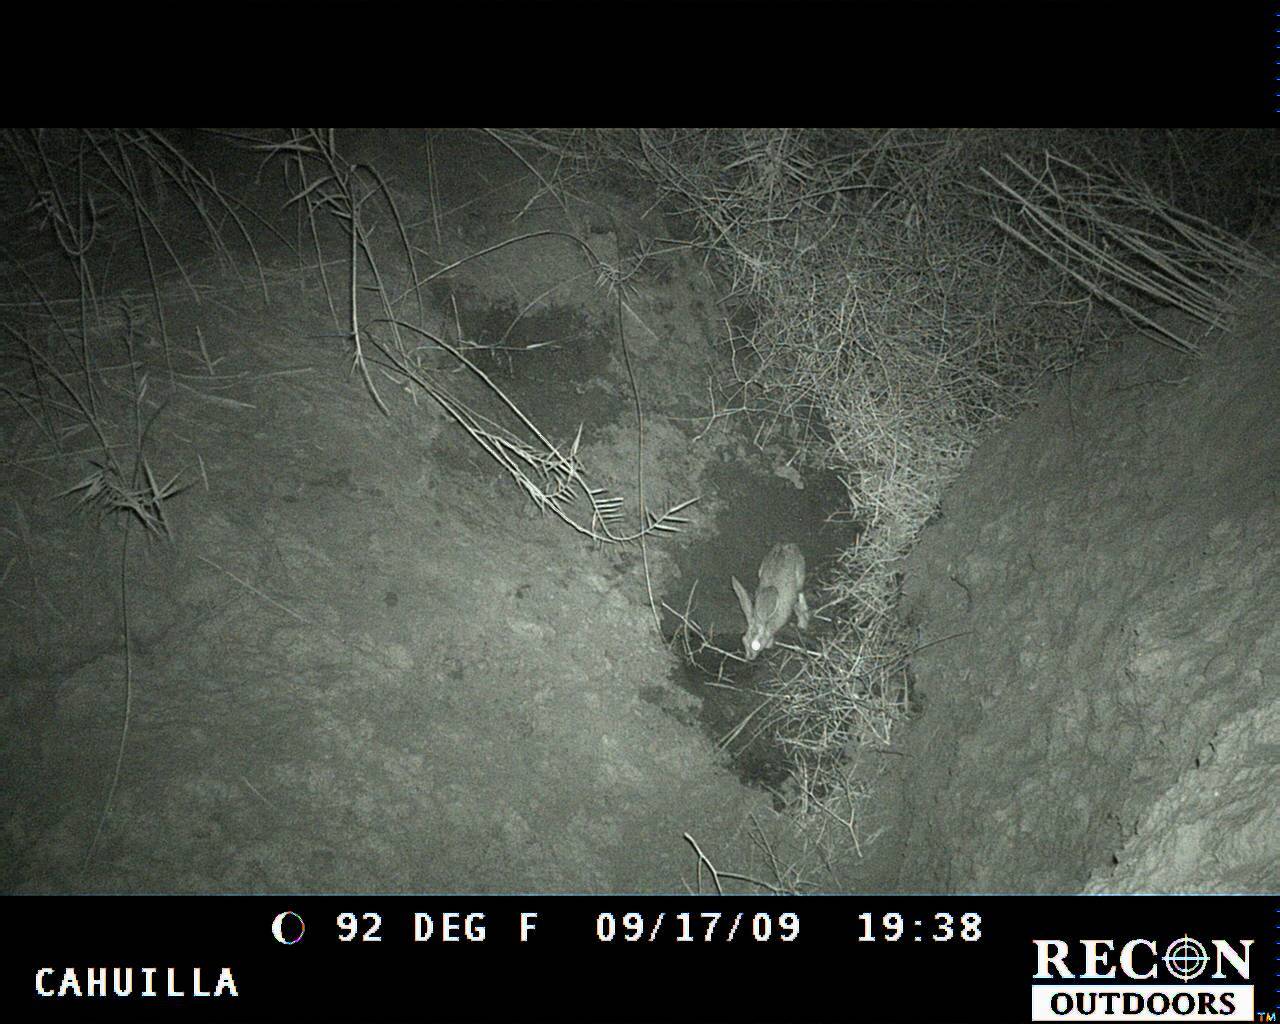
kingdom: Animalia
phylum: Chordata
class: Mammalia
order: Lagomorpha
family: Leporidae
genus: Lepus
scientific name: Lepus californicus
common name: Black-tailed jackrabbit
